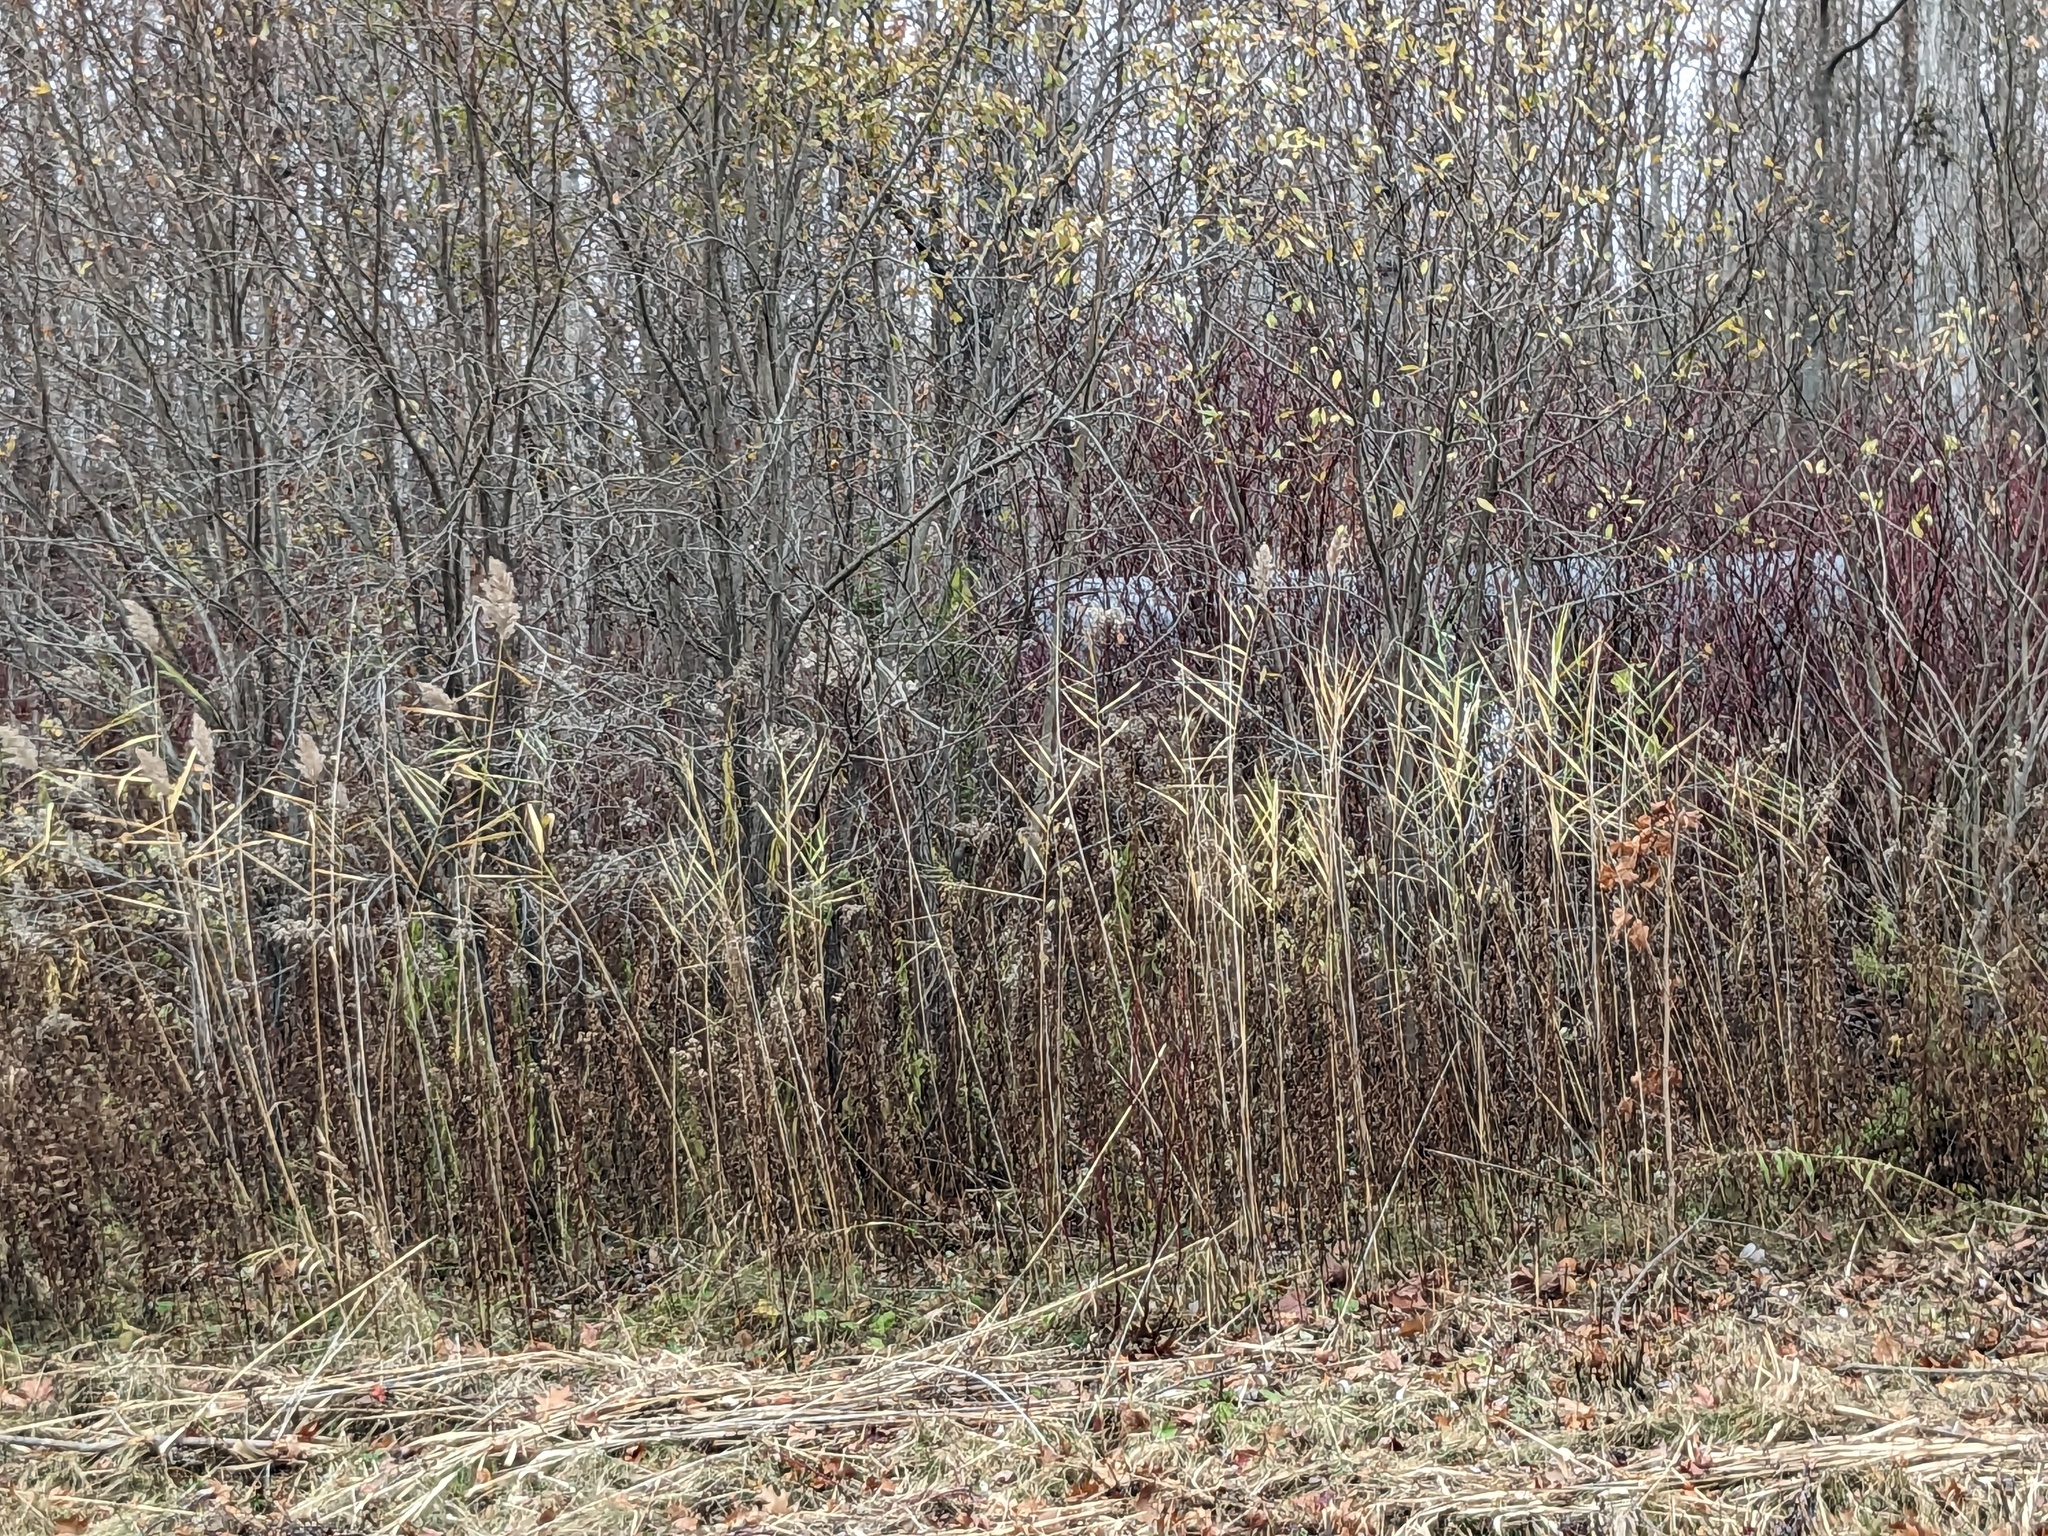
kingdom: Plantae
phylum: Tracheophyta
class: Liliopsida
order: Poales
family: Poaceae
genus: Phragmites
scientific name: Phragmites australis
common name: Common reed
